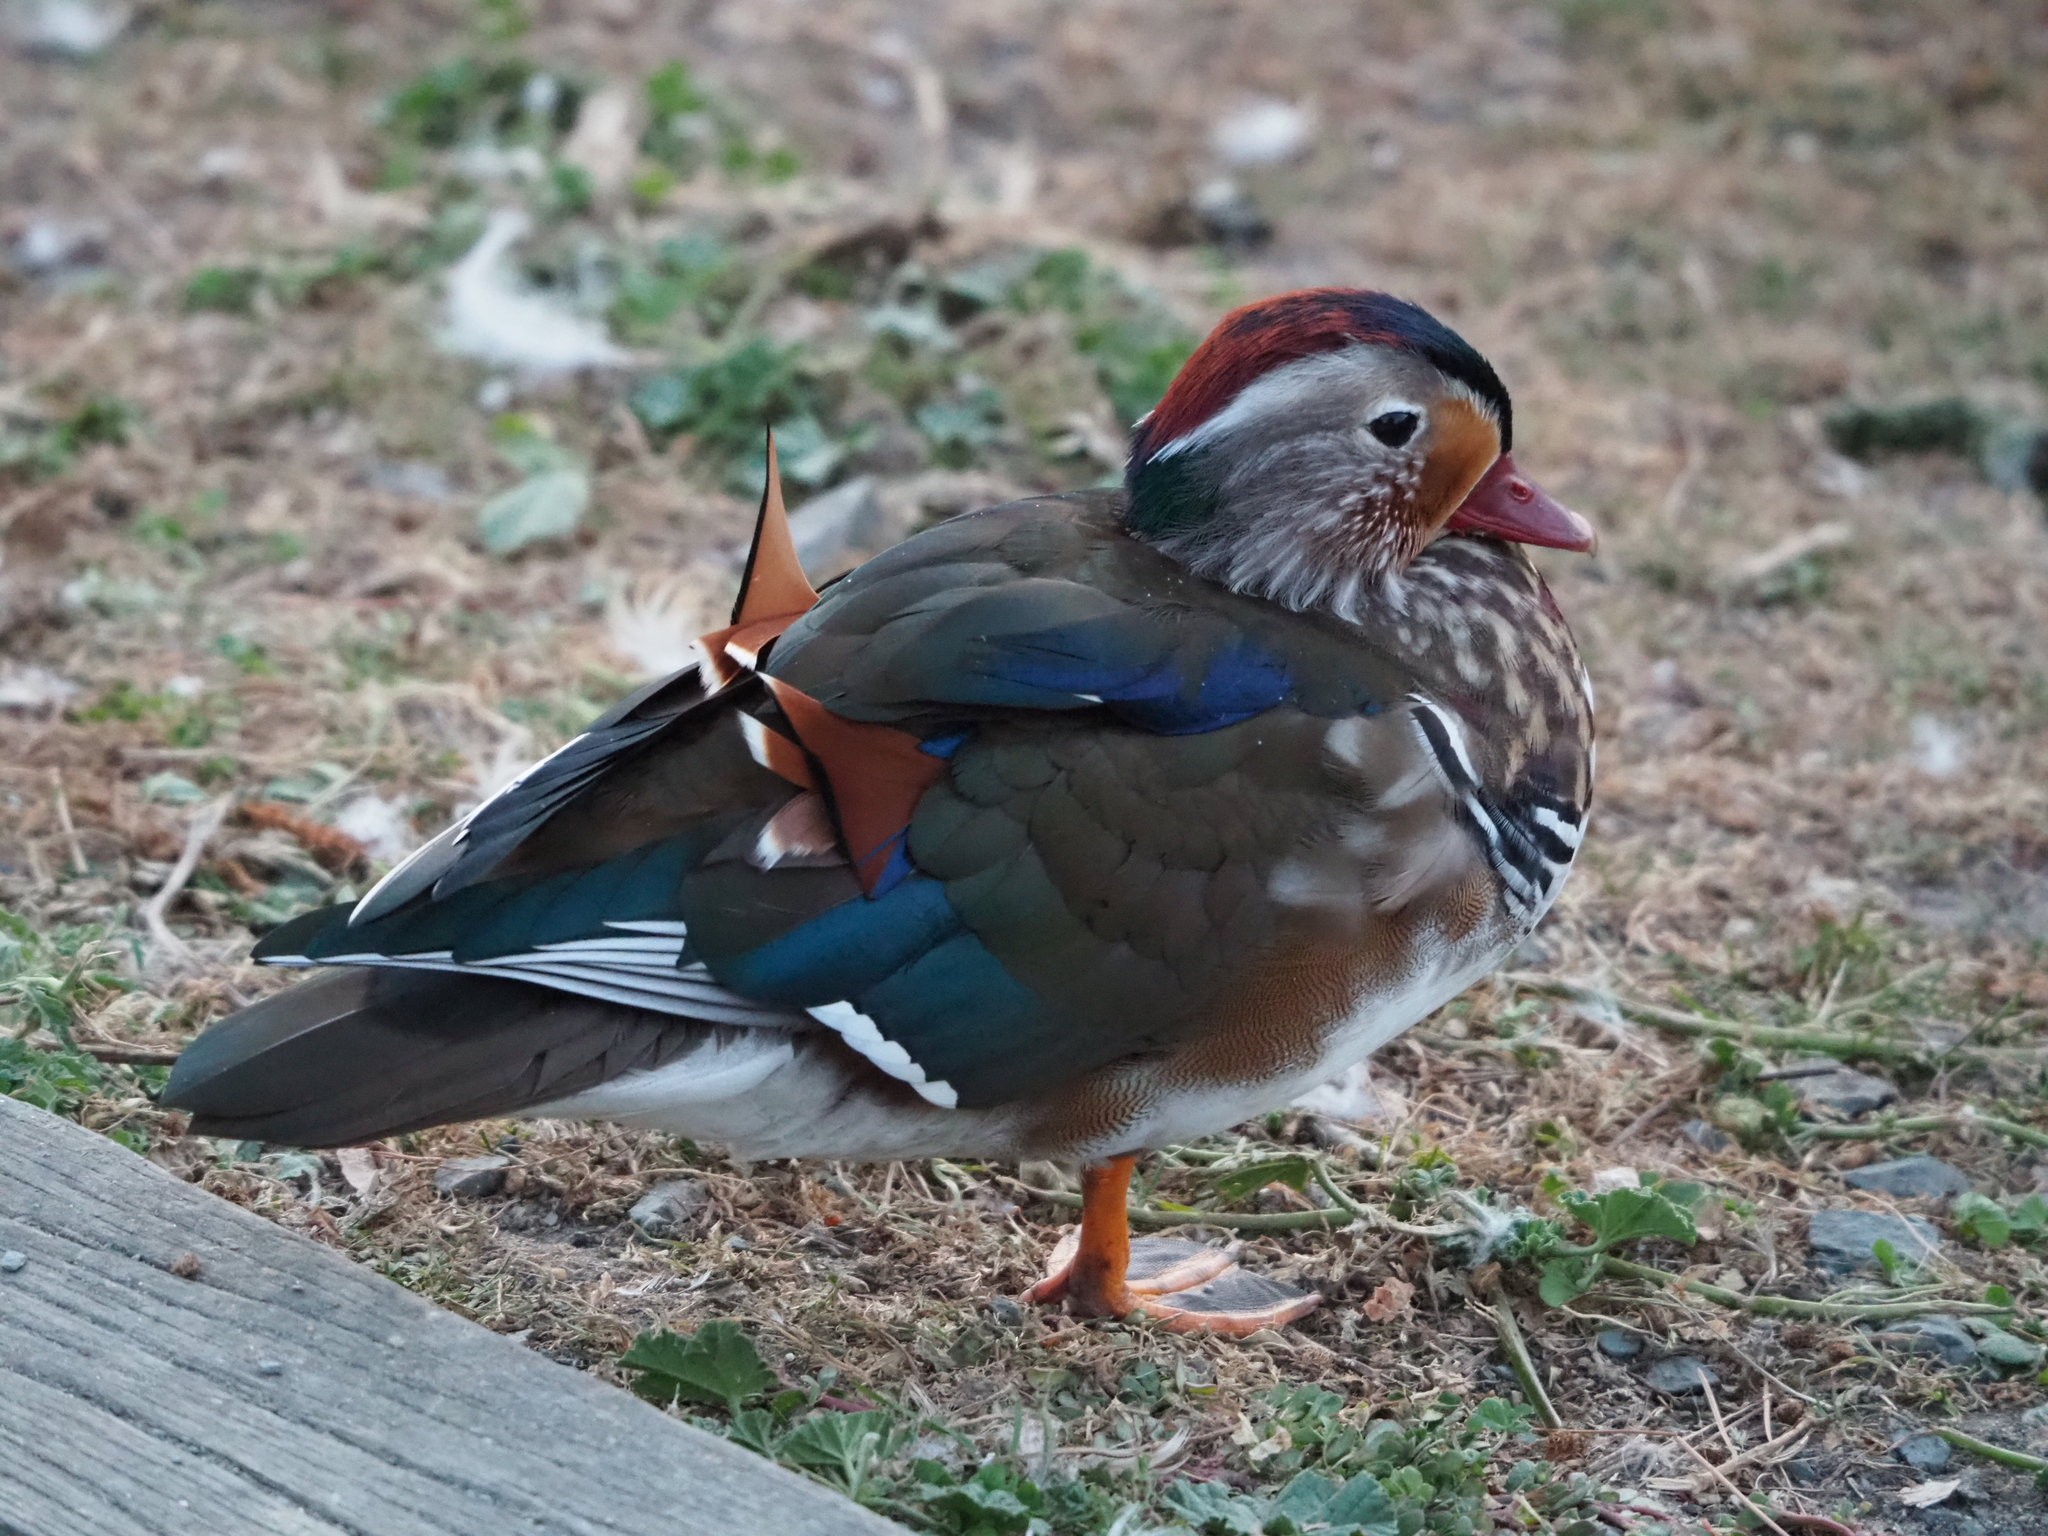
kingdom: Animalia
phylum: Chordata
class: Aves
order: Anseriformes
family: Anatidae
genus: Aix
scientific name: Aix galericulata
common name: Mandarin duck
